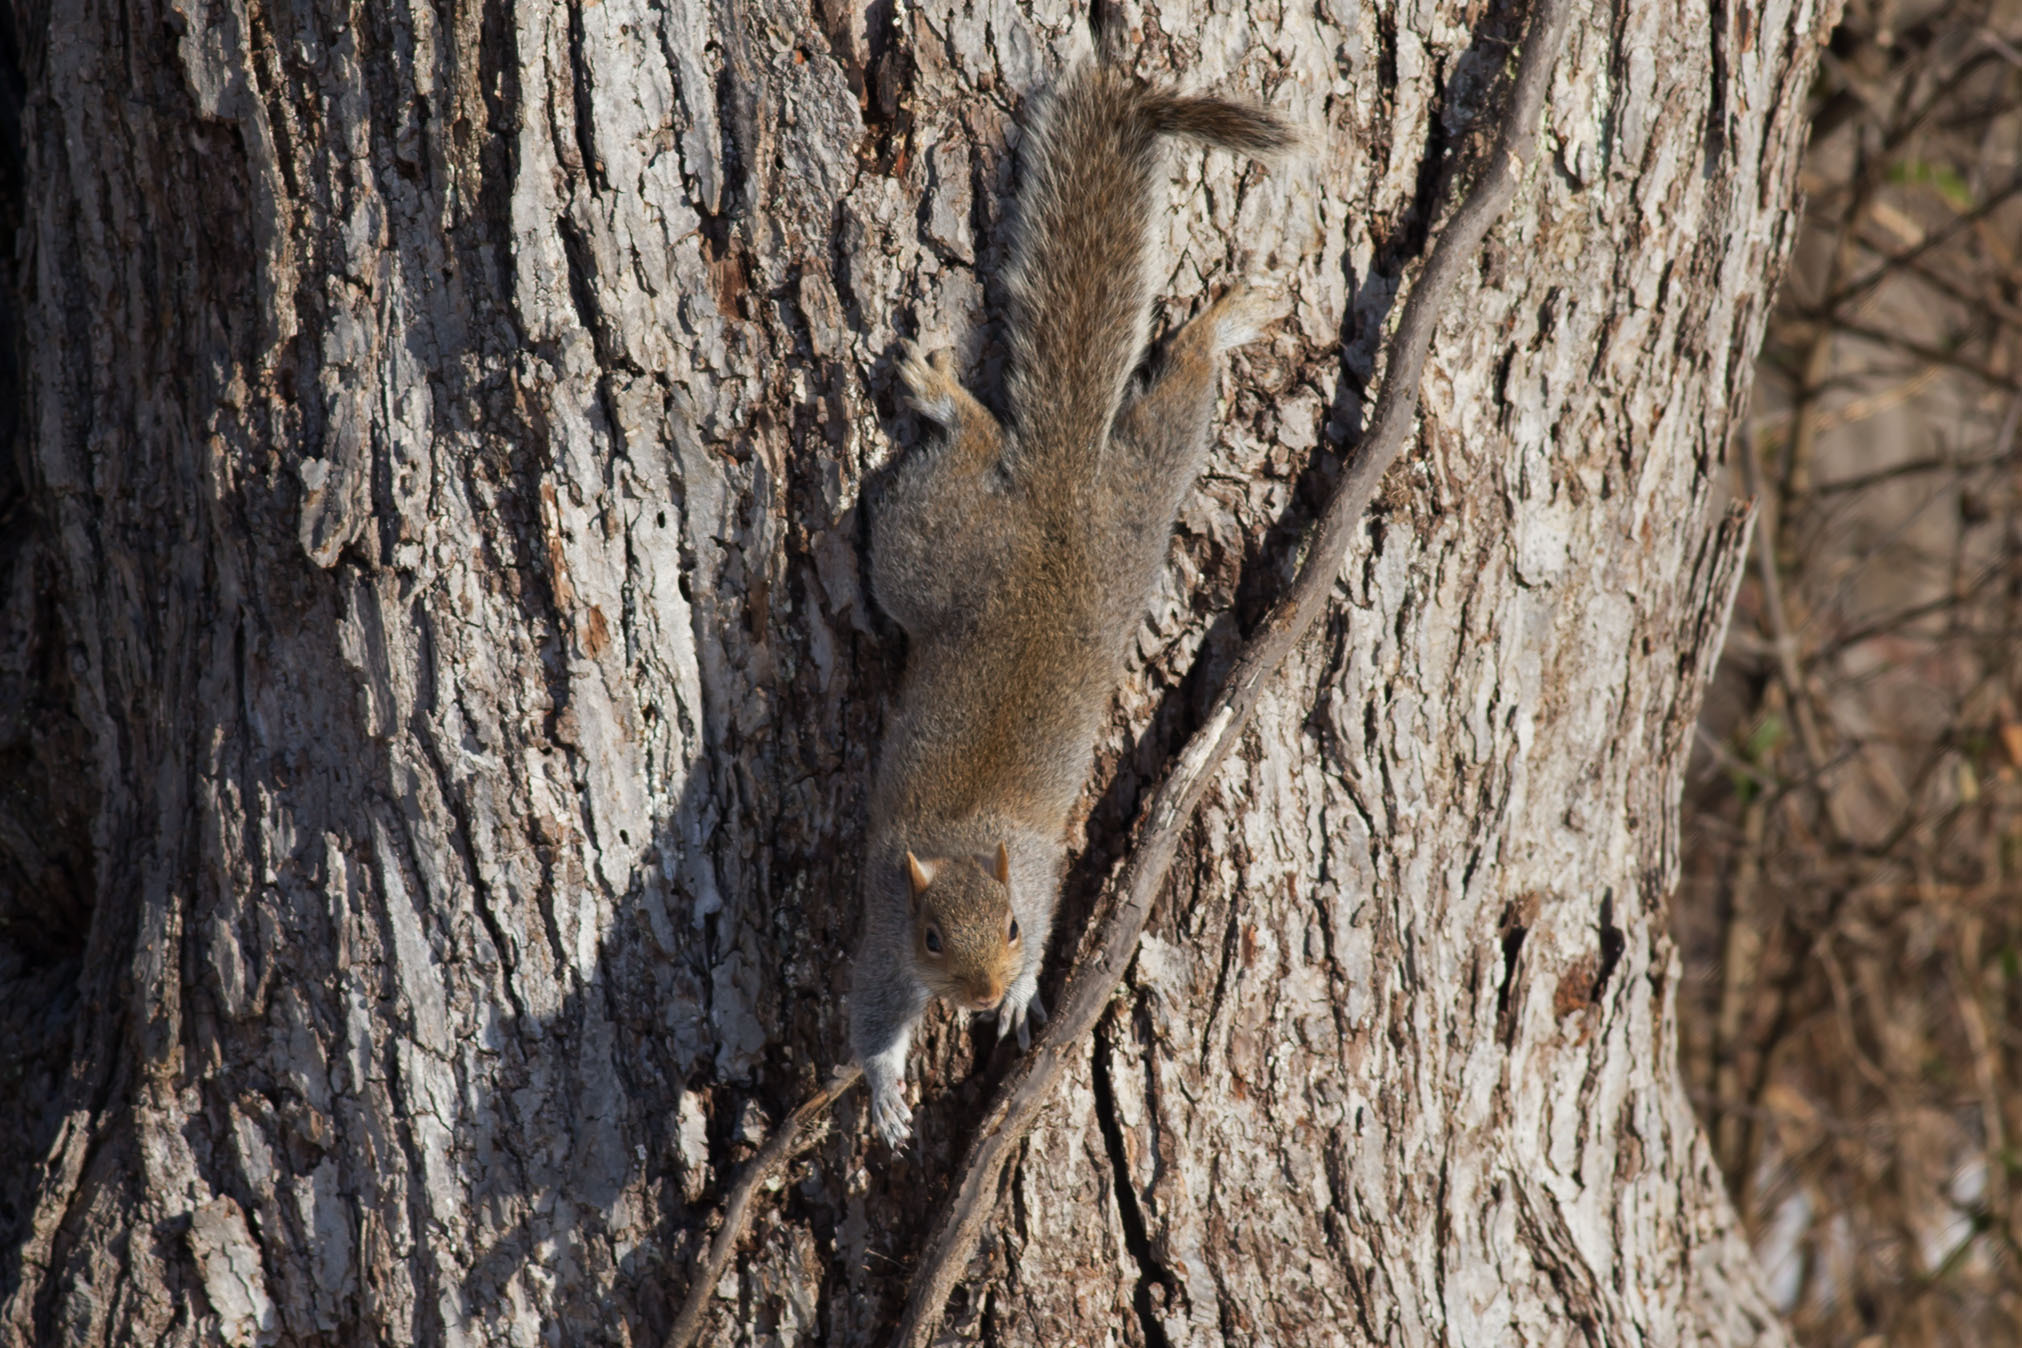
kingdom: Animalia
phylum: Chordata
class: Mammalia
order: Rodentia
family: Sciuridae
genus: Sciurus
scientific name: Sciurus carolinensis
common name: Eastern gray squirrel
